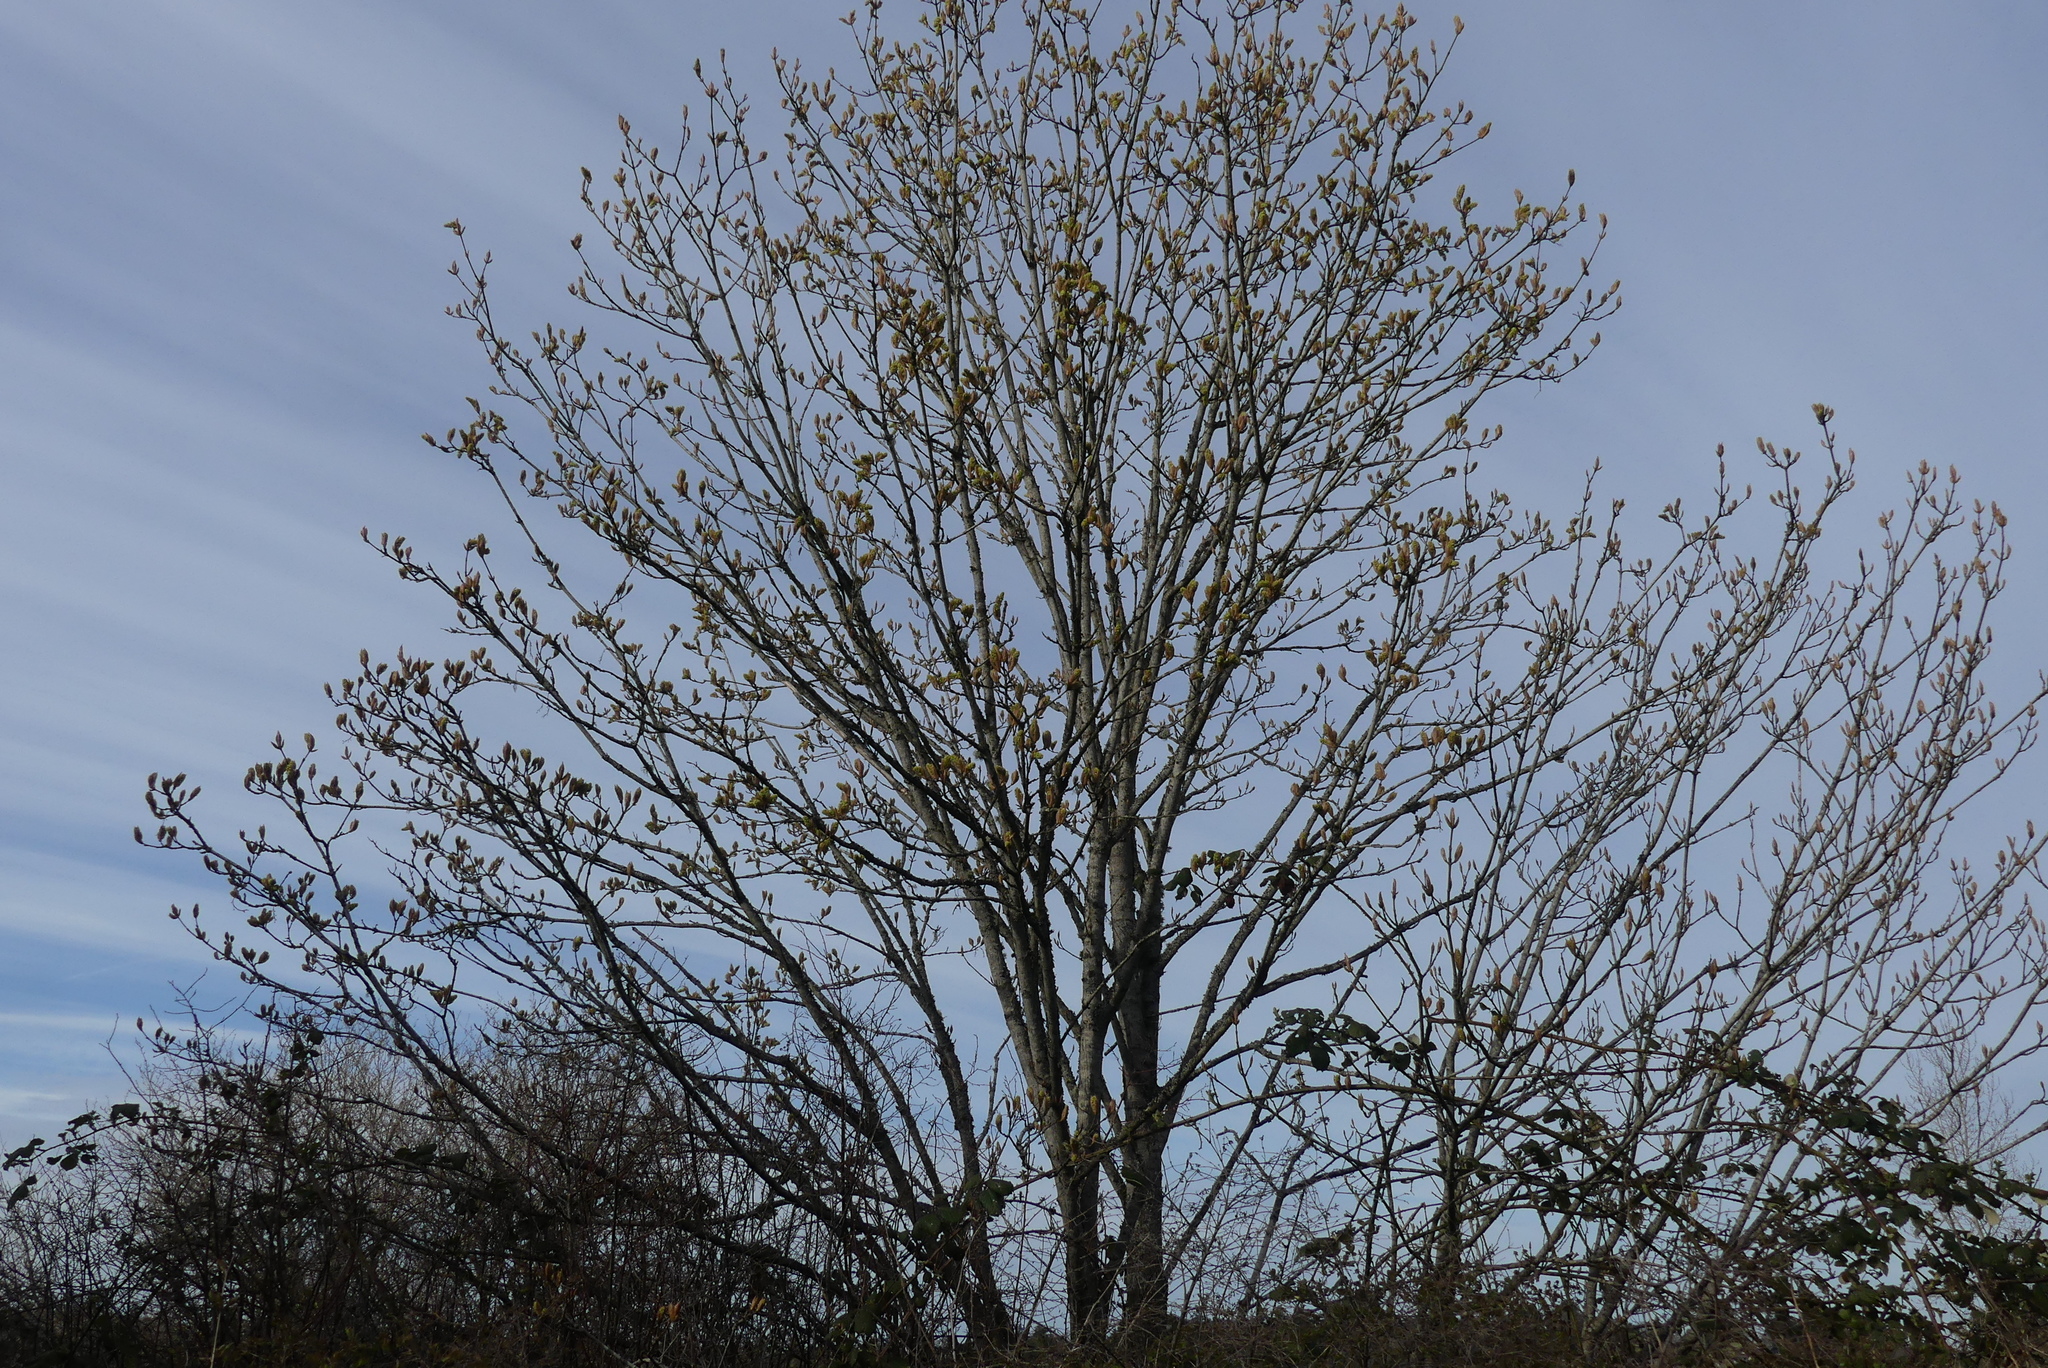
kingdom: Plantae
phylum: Tracheophyta
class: Magnoliopsida
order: Sapindales
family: Sapindaceae
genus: Acer
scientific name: Acer macrophyllum
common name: Oregon maple
